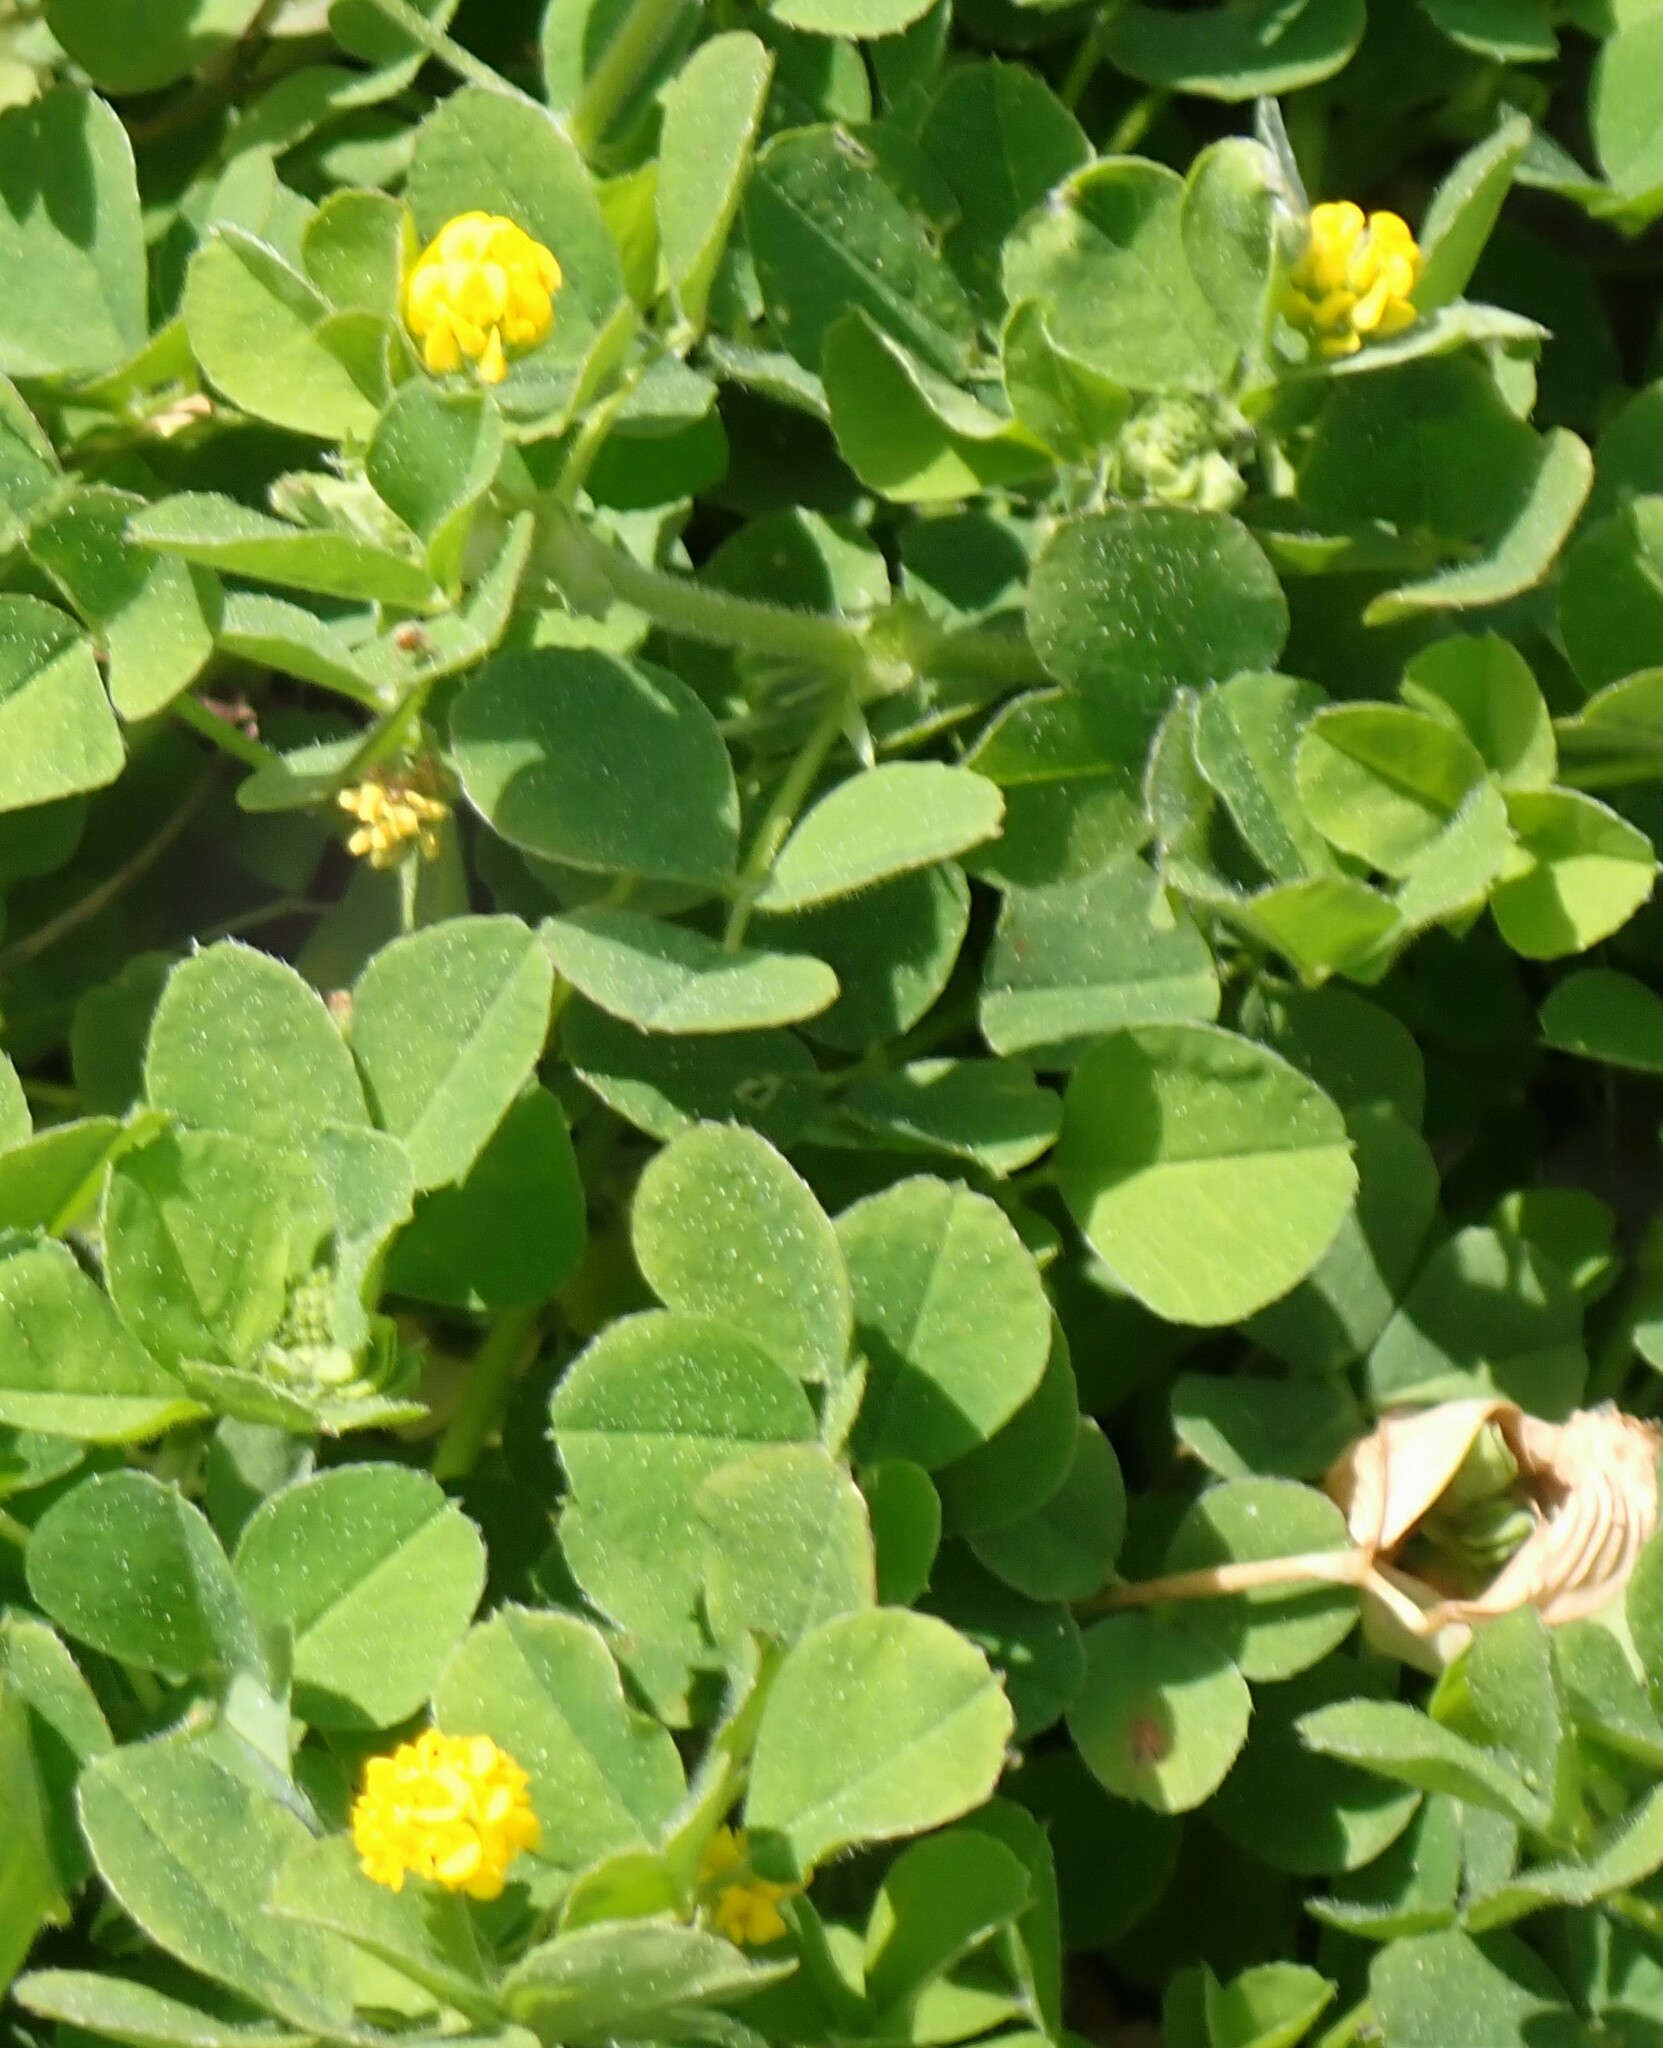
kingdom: Plantae
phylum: Tracheophyta
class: Magnoliopsida
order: Fabales
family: Fabaceae
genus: Medicago
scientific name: Medicago lupulina
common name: Black medick
